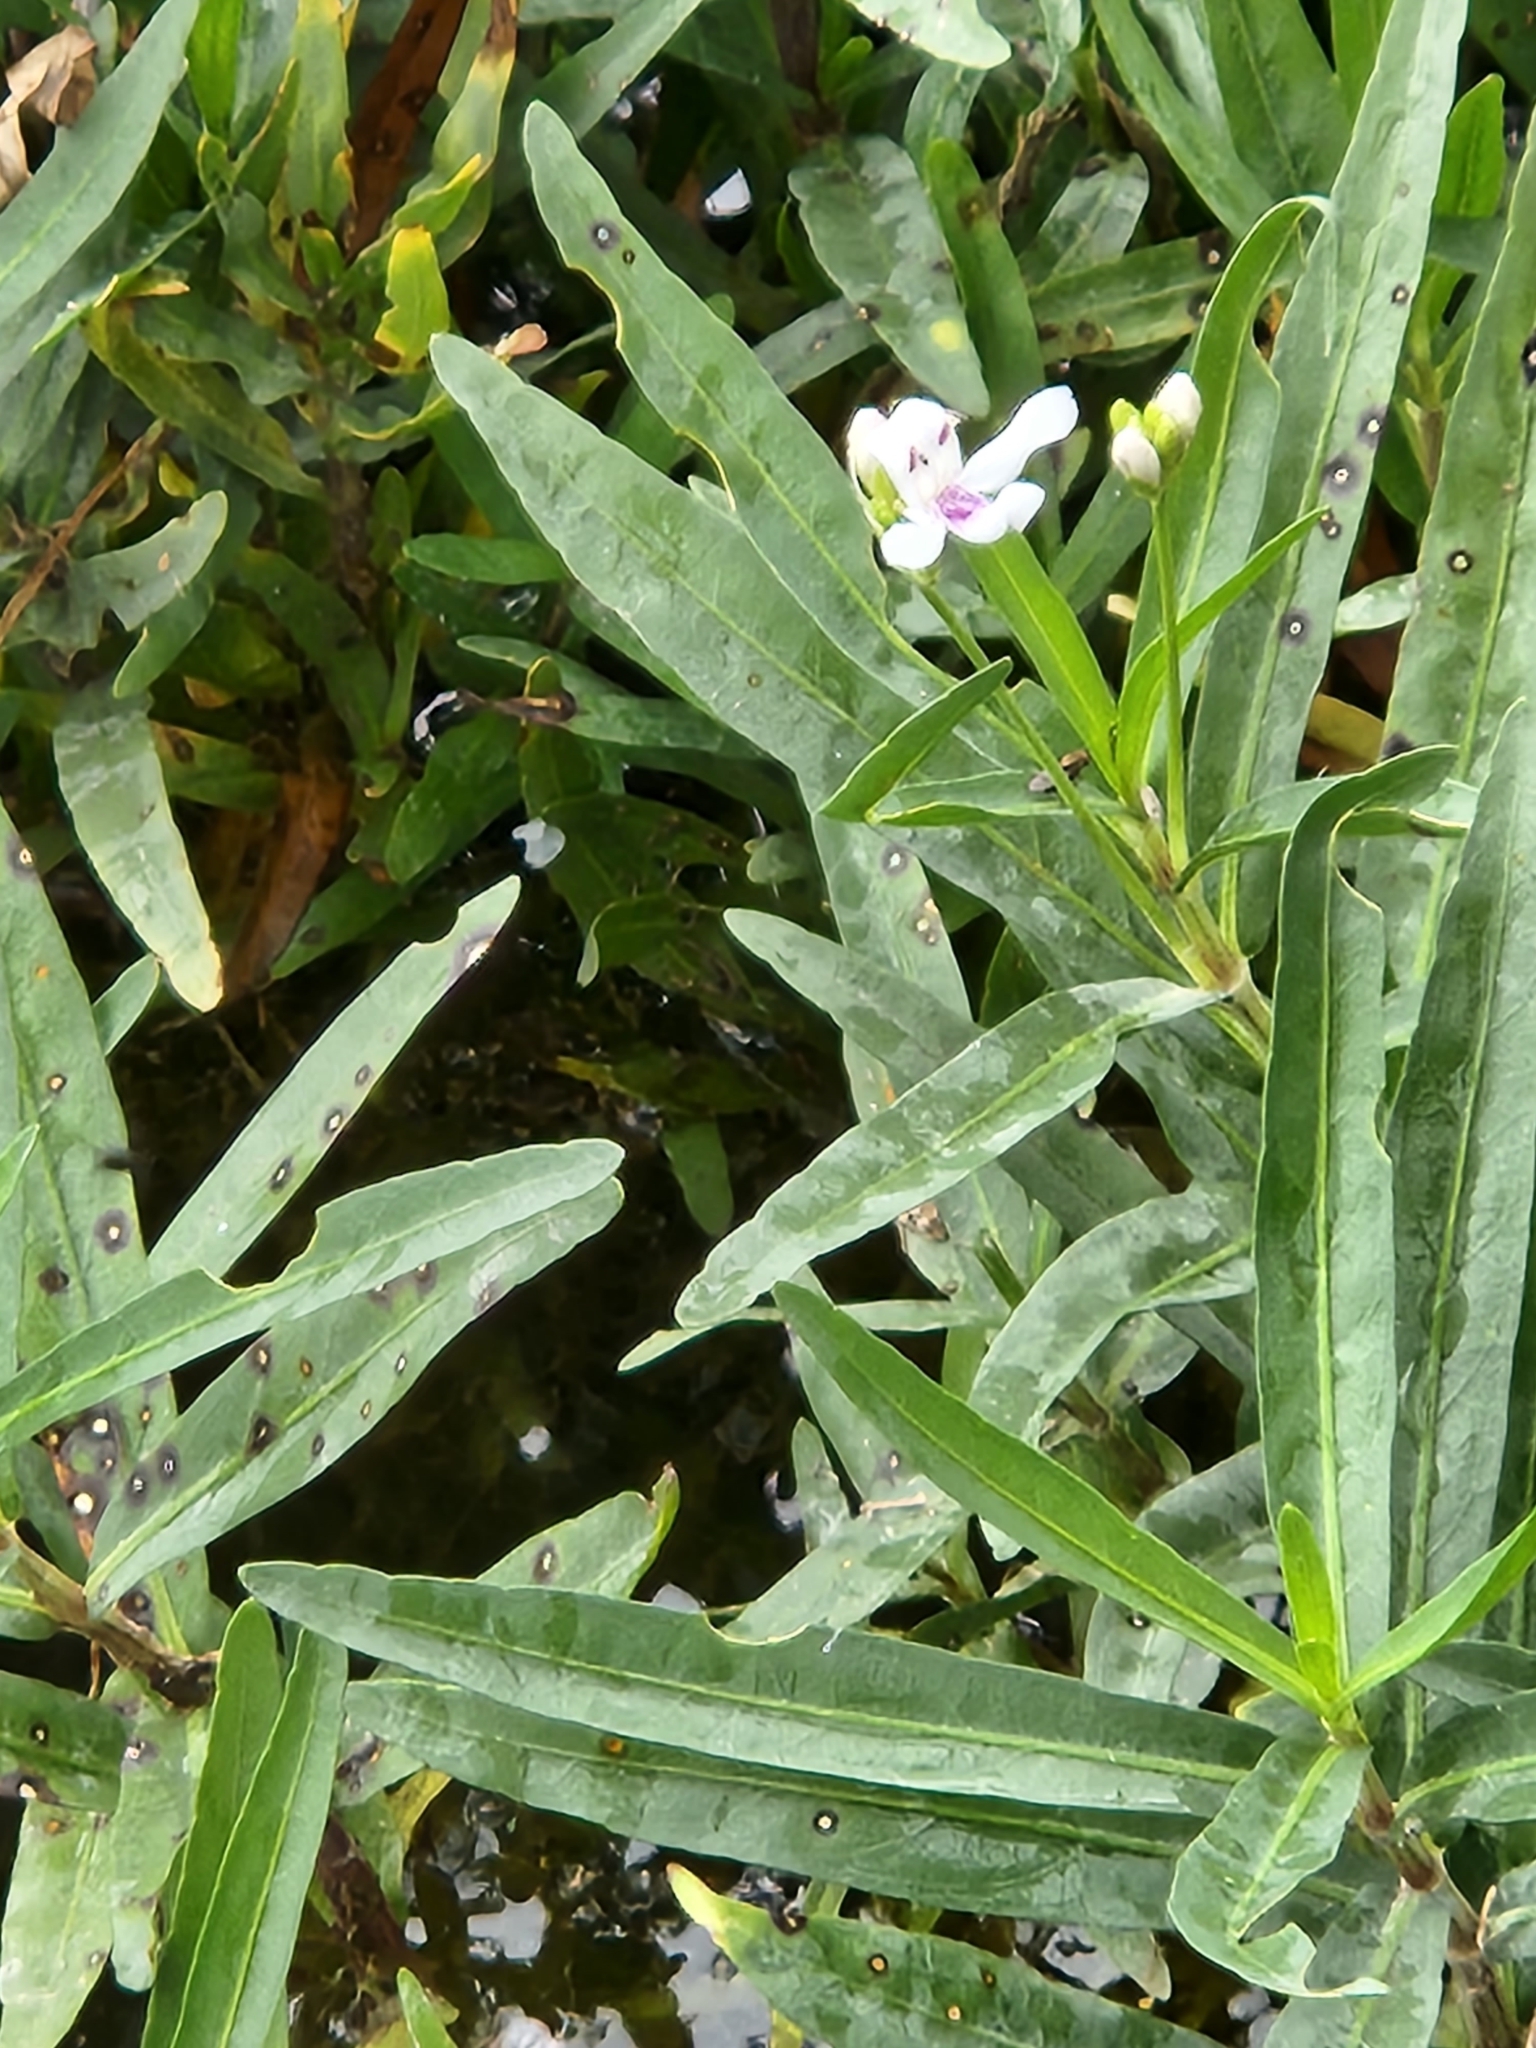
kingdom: Plantae
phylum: Tracheophyta
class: Magnoliopsida
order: Lamiales
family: Acanthaceae
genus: Dianthera
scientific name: Dianthera americana
